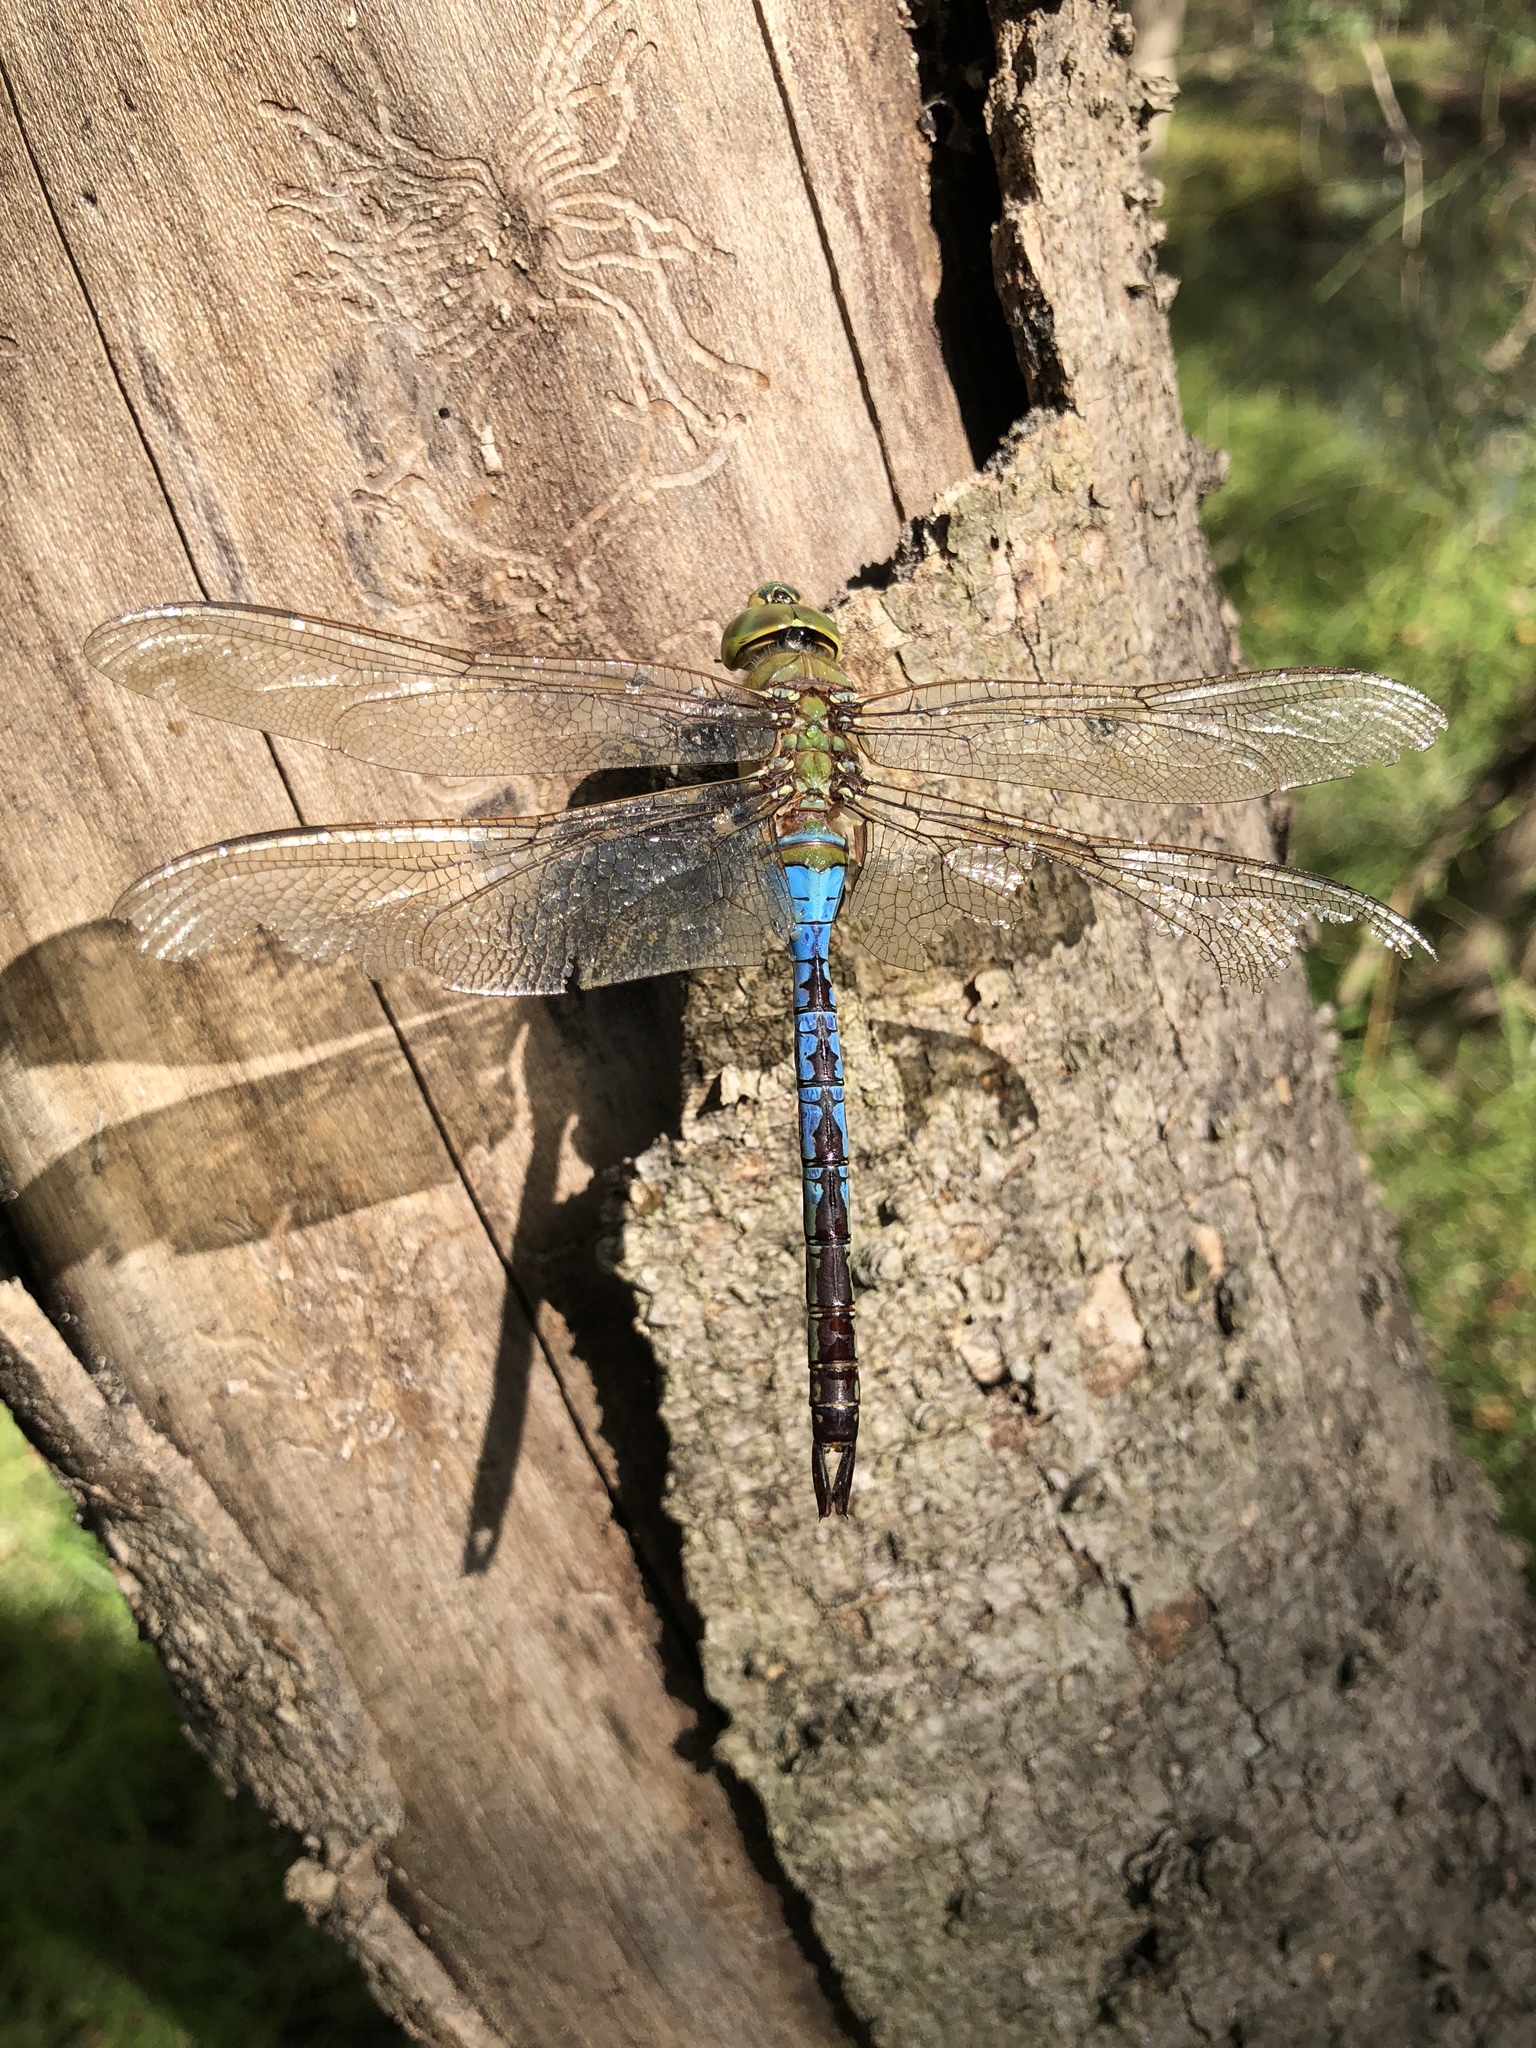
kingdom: Animalia
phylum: Arthropoda
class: Insecta
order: Odonata
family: Aeshnidae
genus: Anax
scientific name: Anax junius
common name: Common green darner
